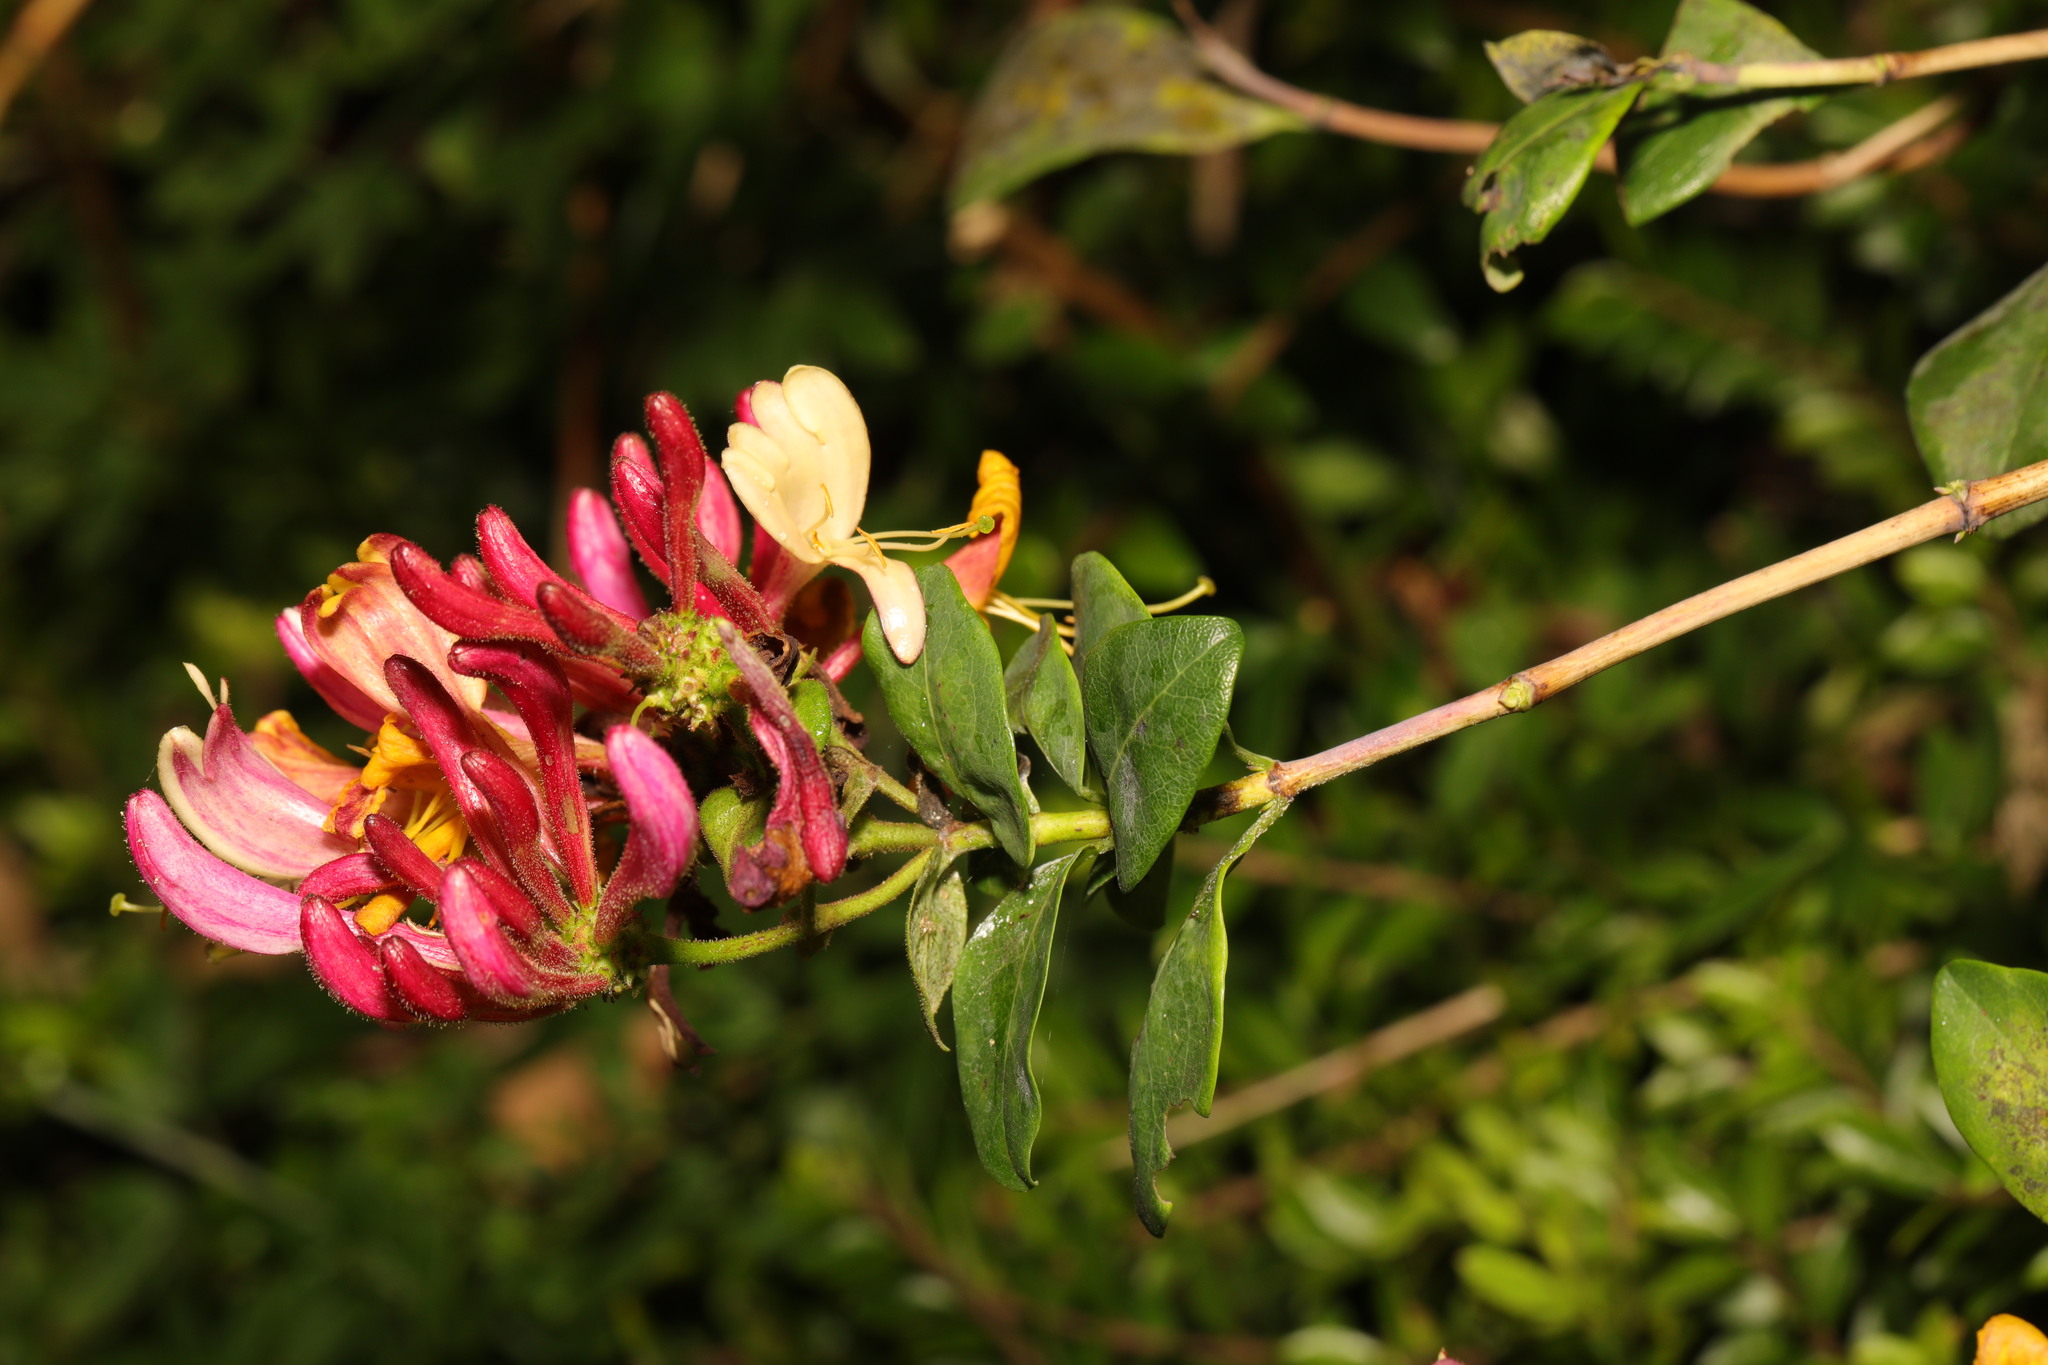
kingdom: Plantae
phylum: Tracheophyta
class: Magnoliopsida
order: Dipsacales
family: Caprifoliaceae
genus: Lonicera
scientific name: Lonicera periclymenum
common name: European honeysuckle
